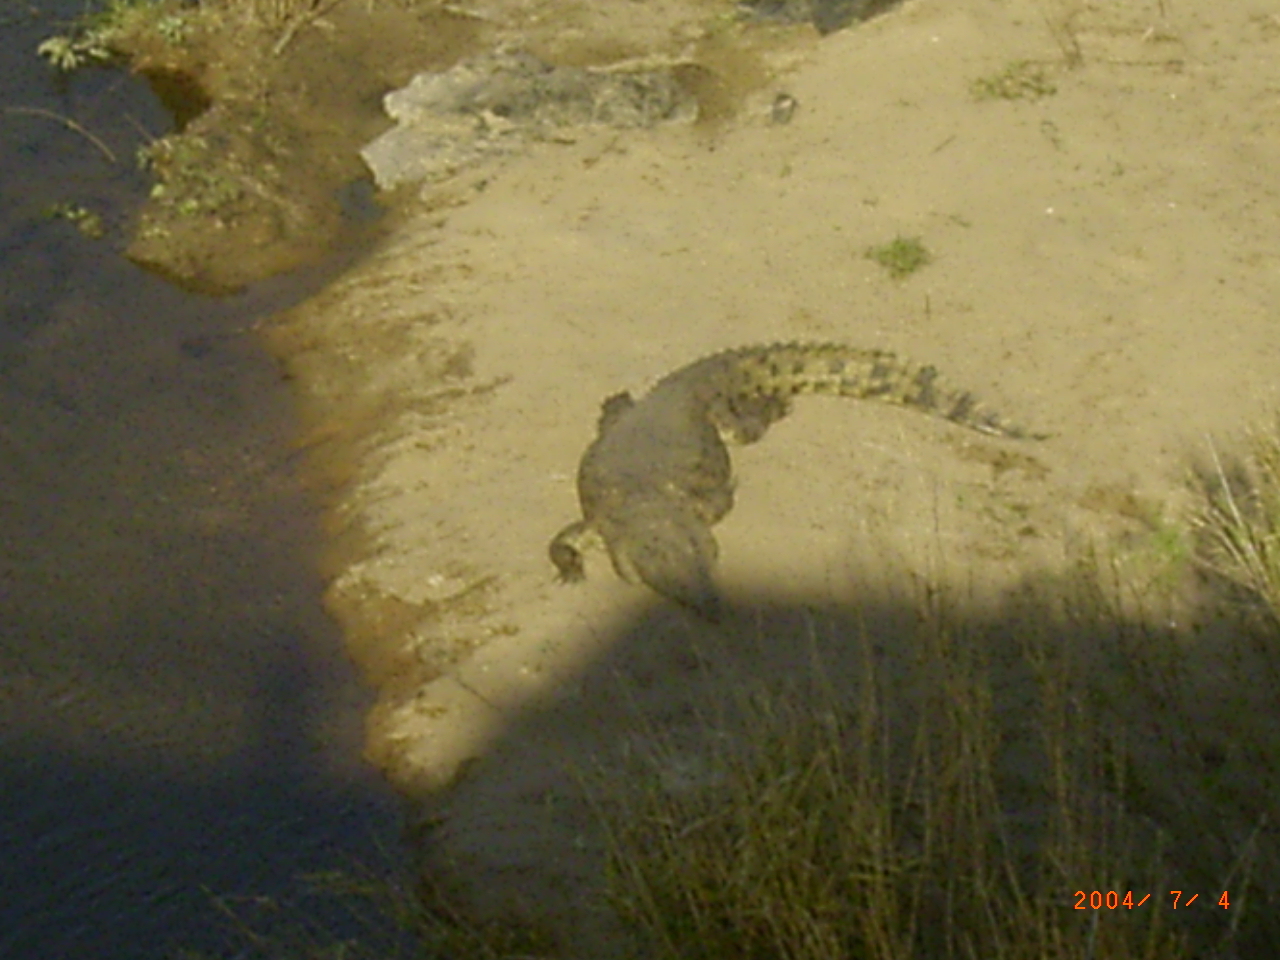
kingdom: Animalia
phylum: Chordata
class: Crocodylia
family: Crocodylidae
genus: Crocodylus
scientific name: Crocodylus niloticus
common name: Nile crocodile
